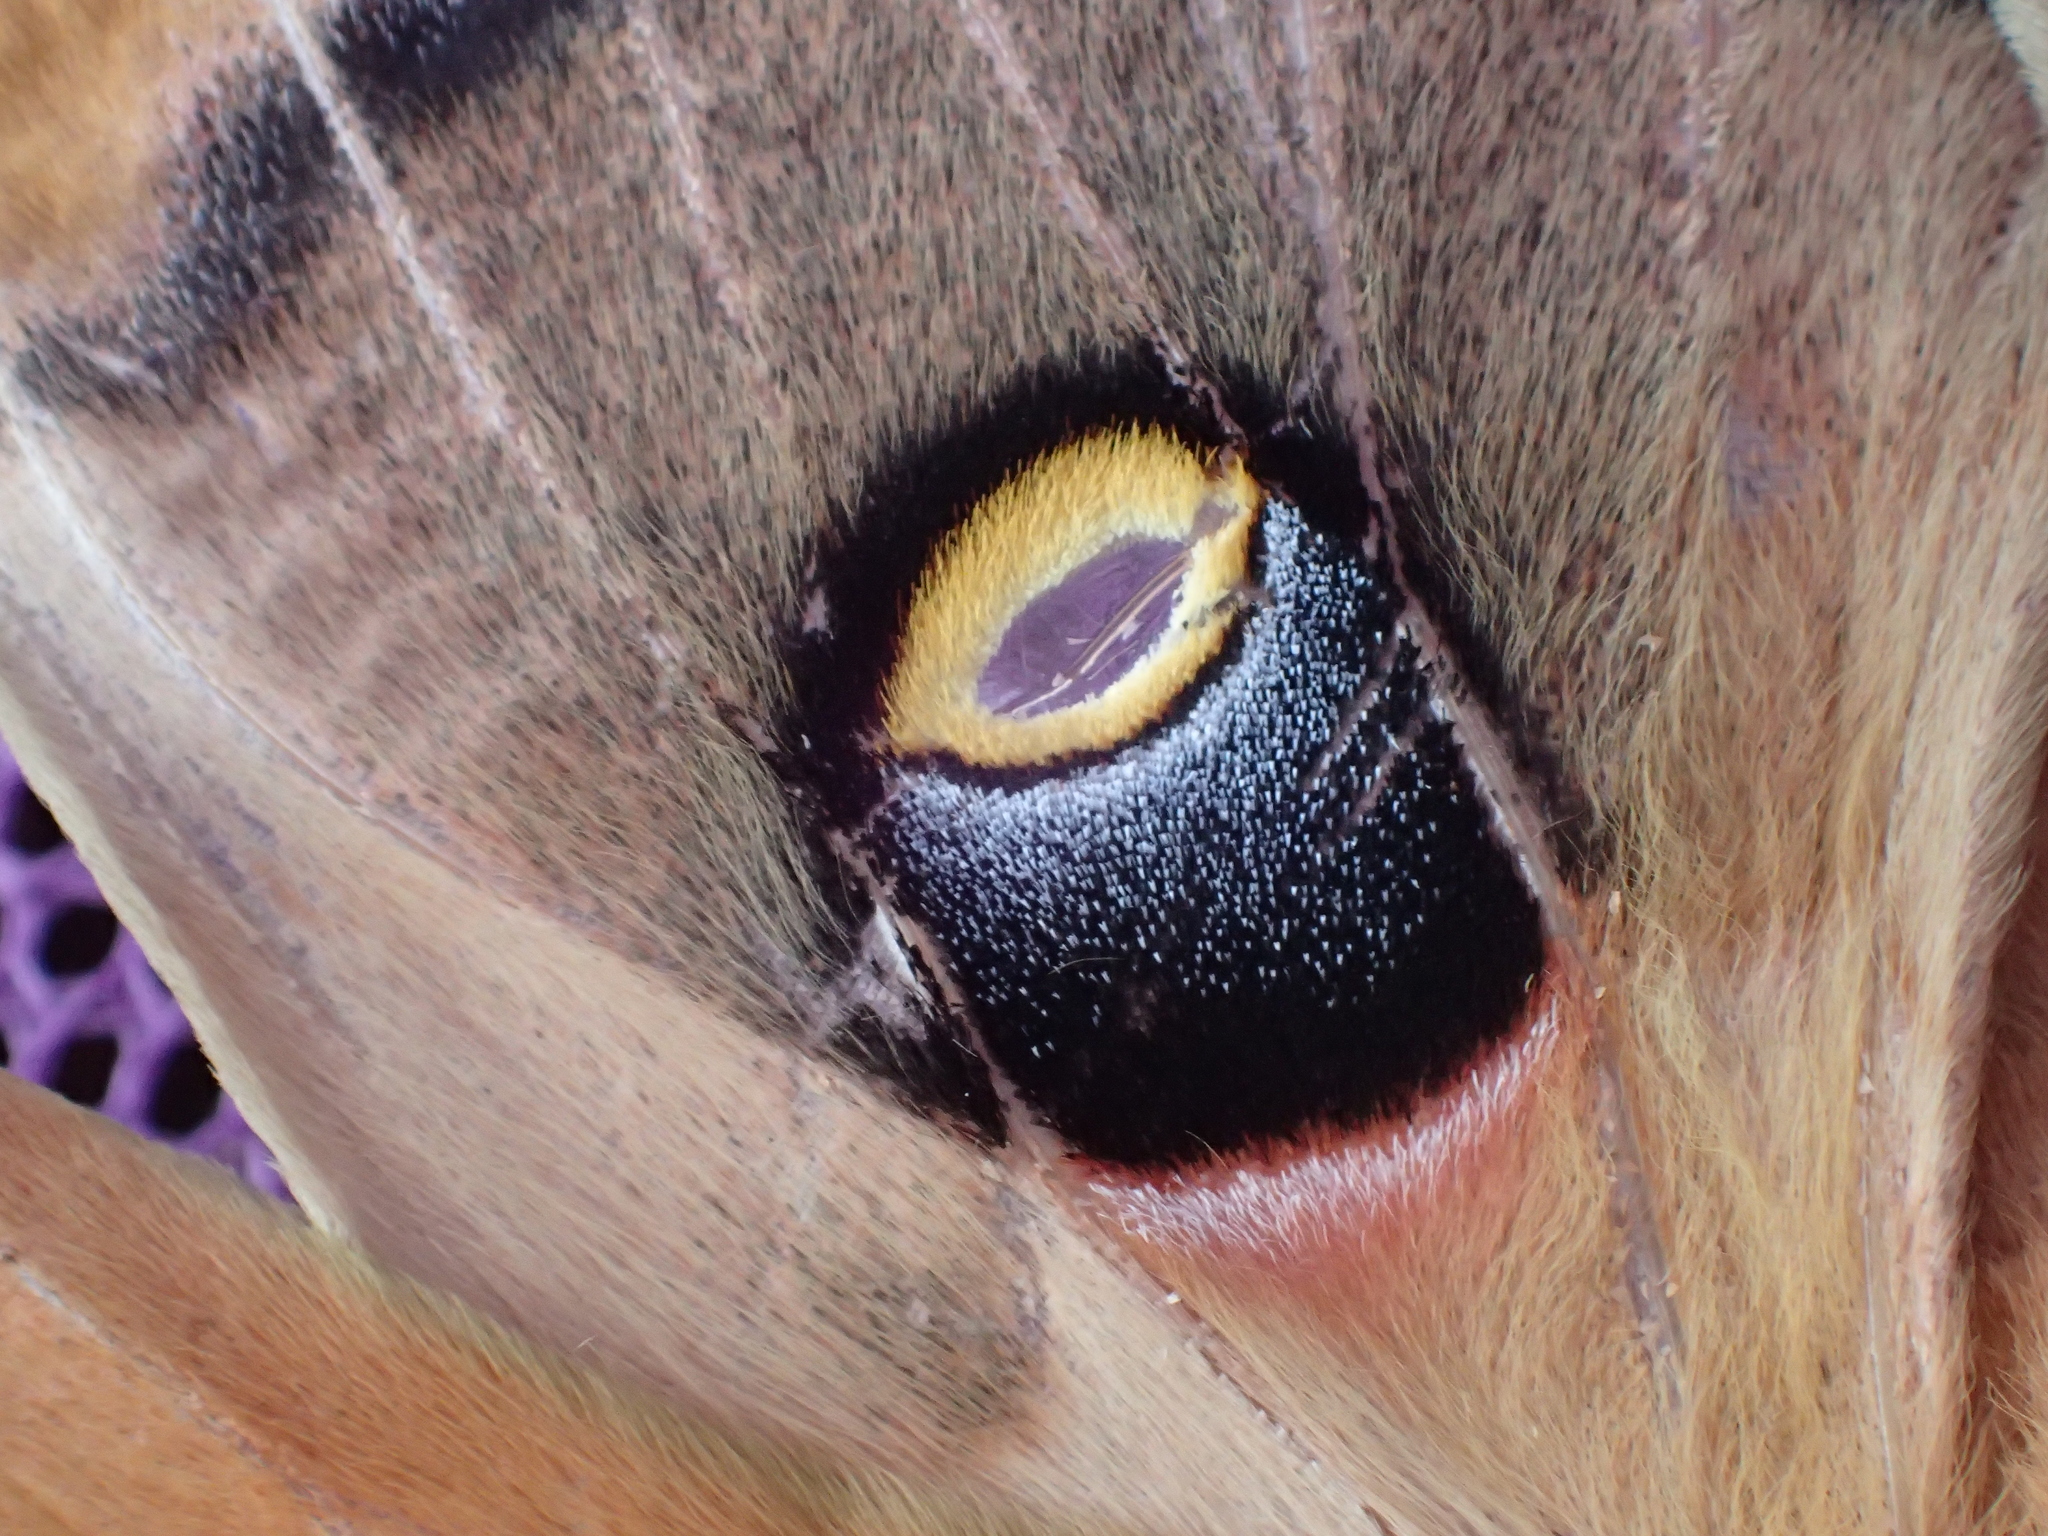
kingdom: Animalia
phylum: Arthropoda
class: Insecta
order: Lepidoptera
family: Saturniidae
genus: Antheraea
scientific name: Antheraea polyphemus
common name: Polyphemus moth
